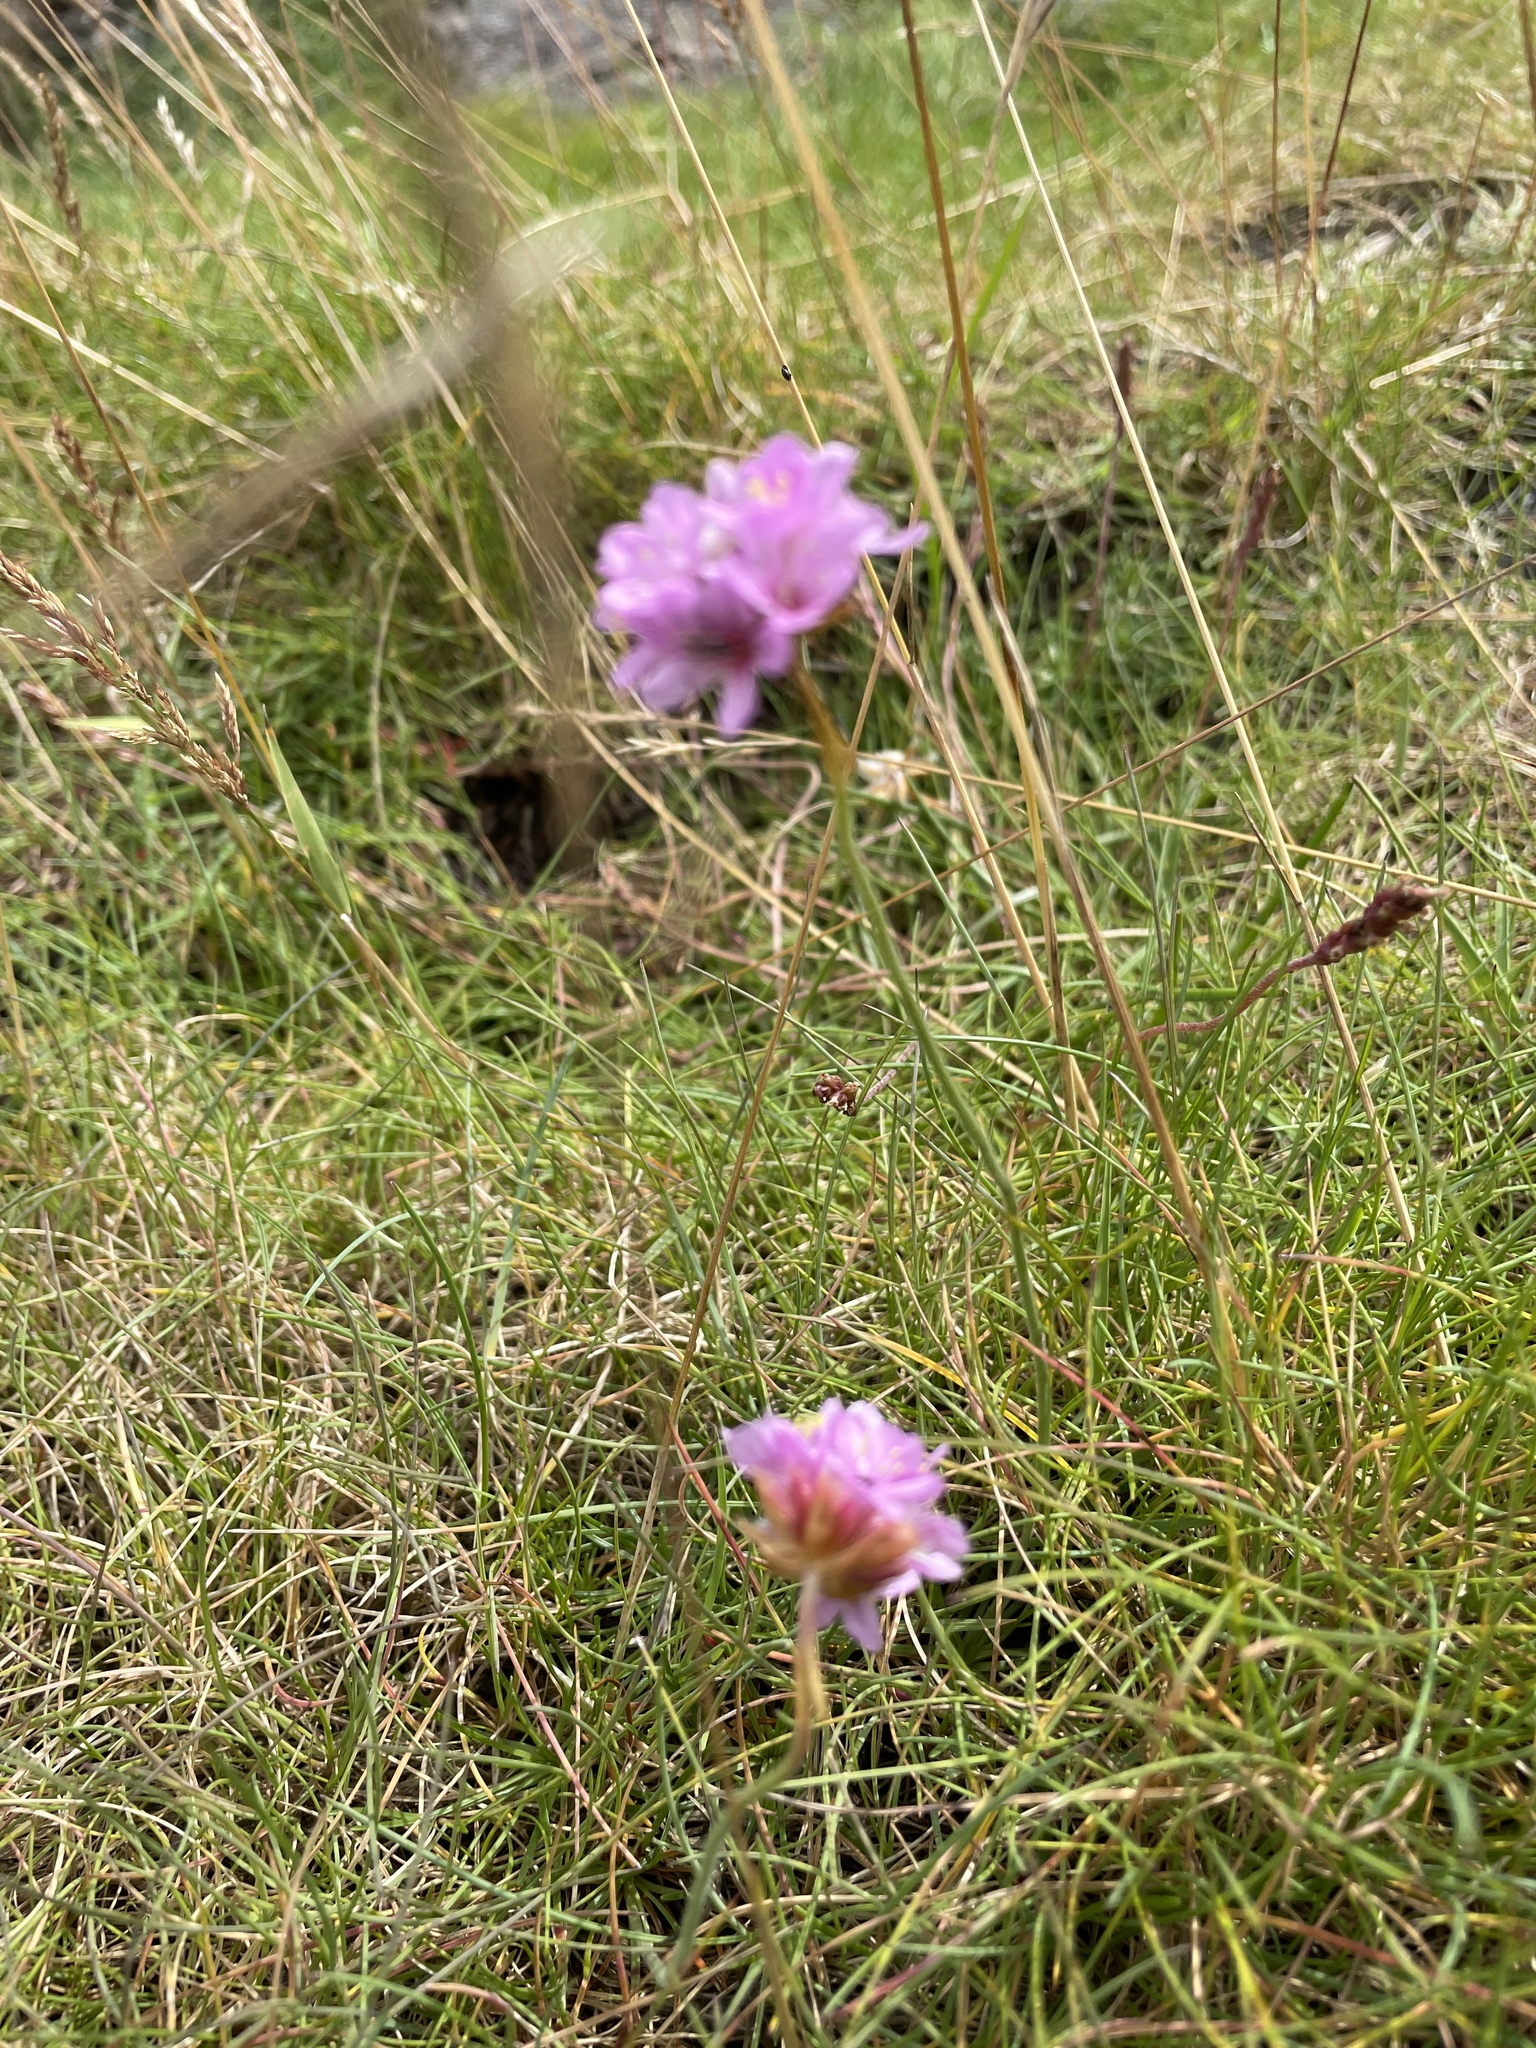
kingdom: Plantae
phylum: Tracheophyta
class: Magnoliopsida
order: Caryophyllales
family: Plumbaginaceae
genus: Armeria
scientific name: Armeria maritima
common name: Thrift
